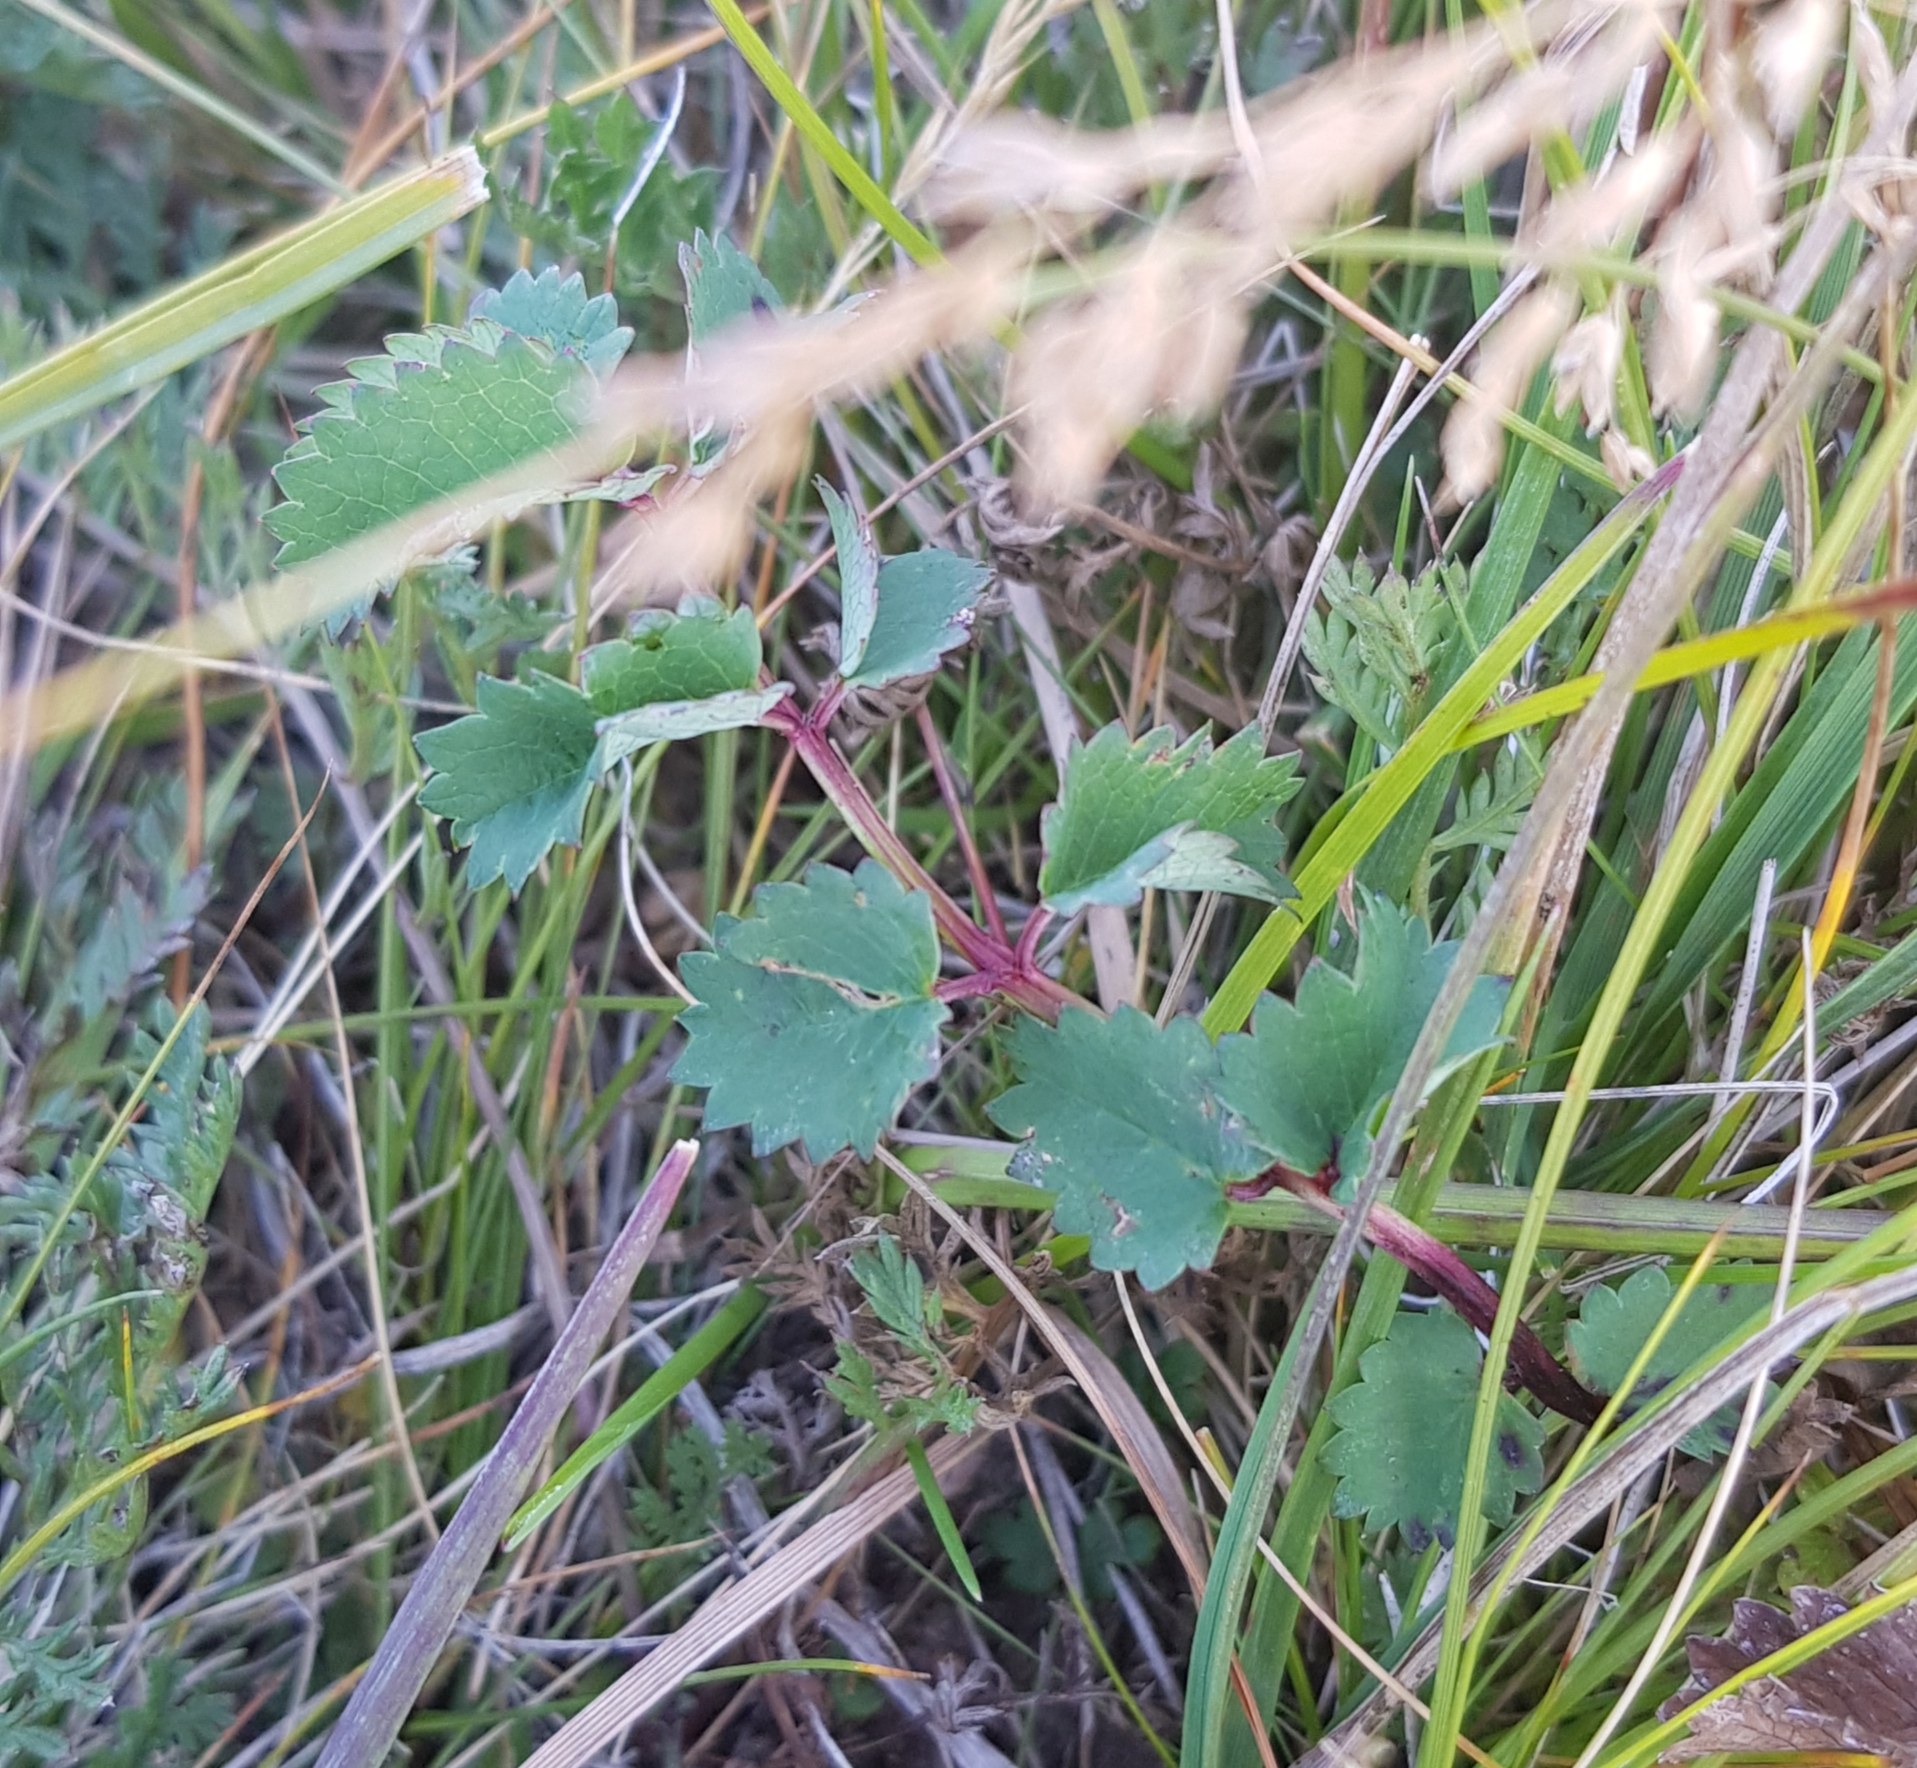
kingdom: Plantae
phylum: Tracheophyta
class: Magnoliopsida
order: Rosales
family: Rosaceae
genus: Sanguisorba
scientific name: Sanguisorba officinalis
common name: Great burnet
